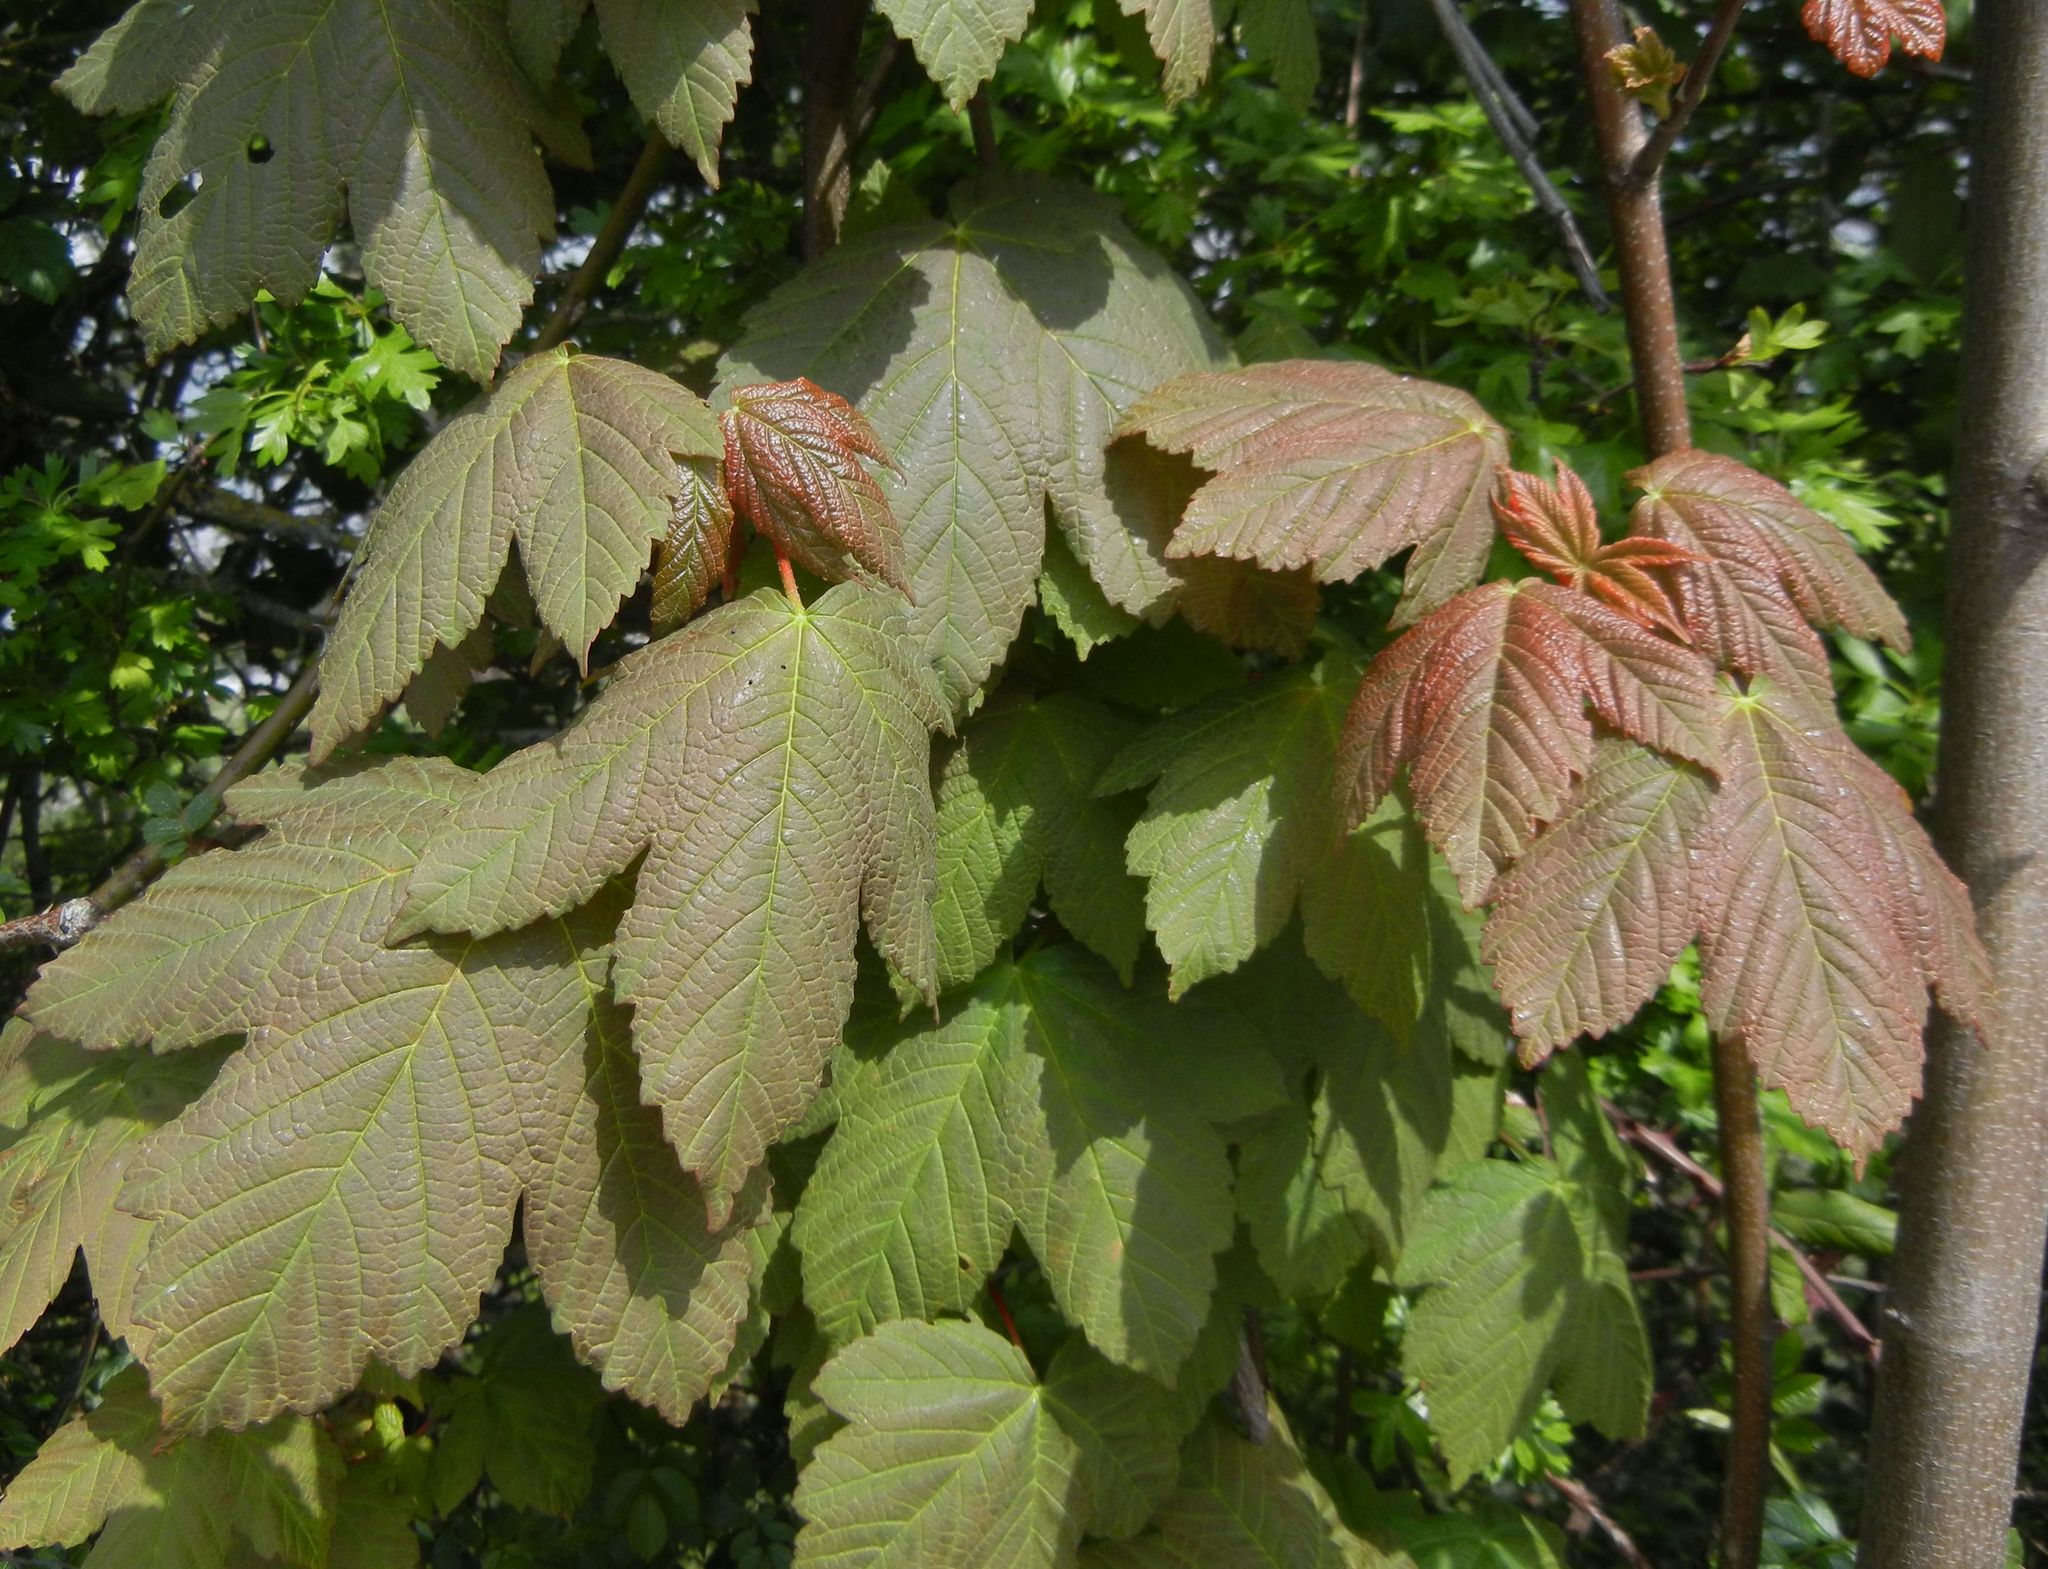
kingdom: Plantae
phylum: Tracheophyta
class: Magnoliopsida
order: Sapindales
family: Sapindaceae
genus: Acer
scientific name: Acer pseudoplatanus
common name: Sycamore
